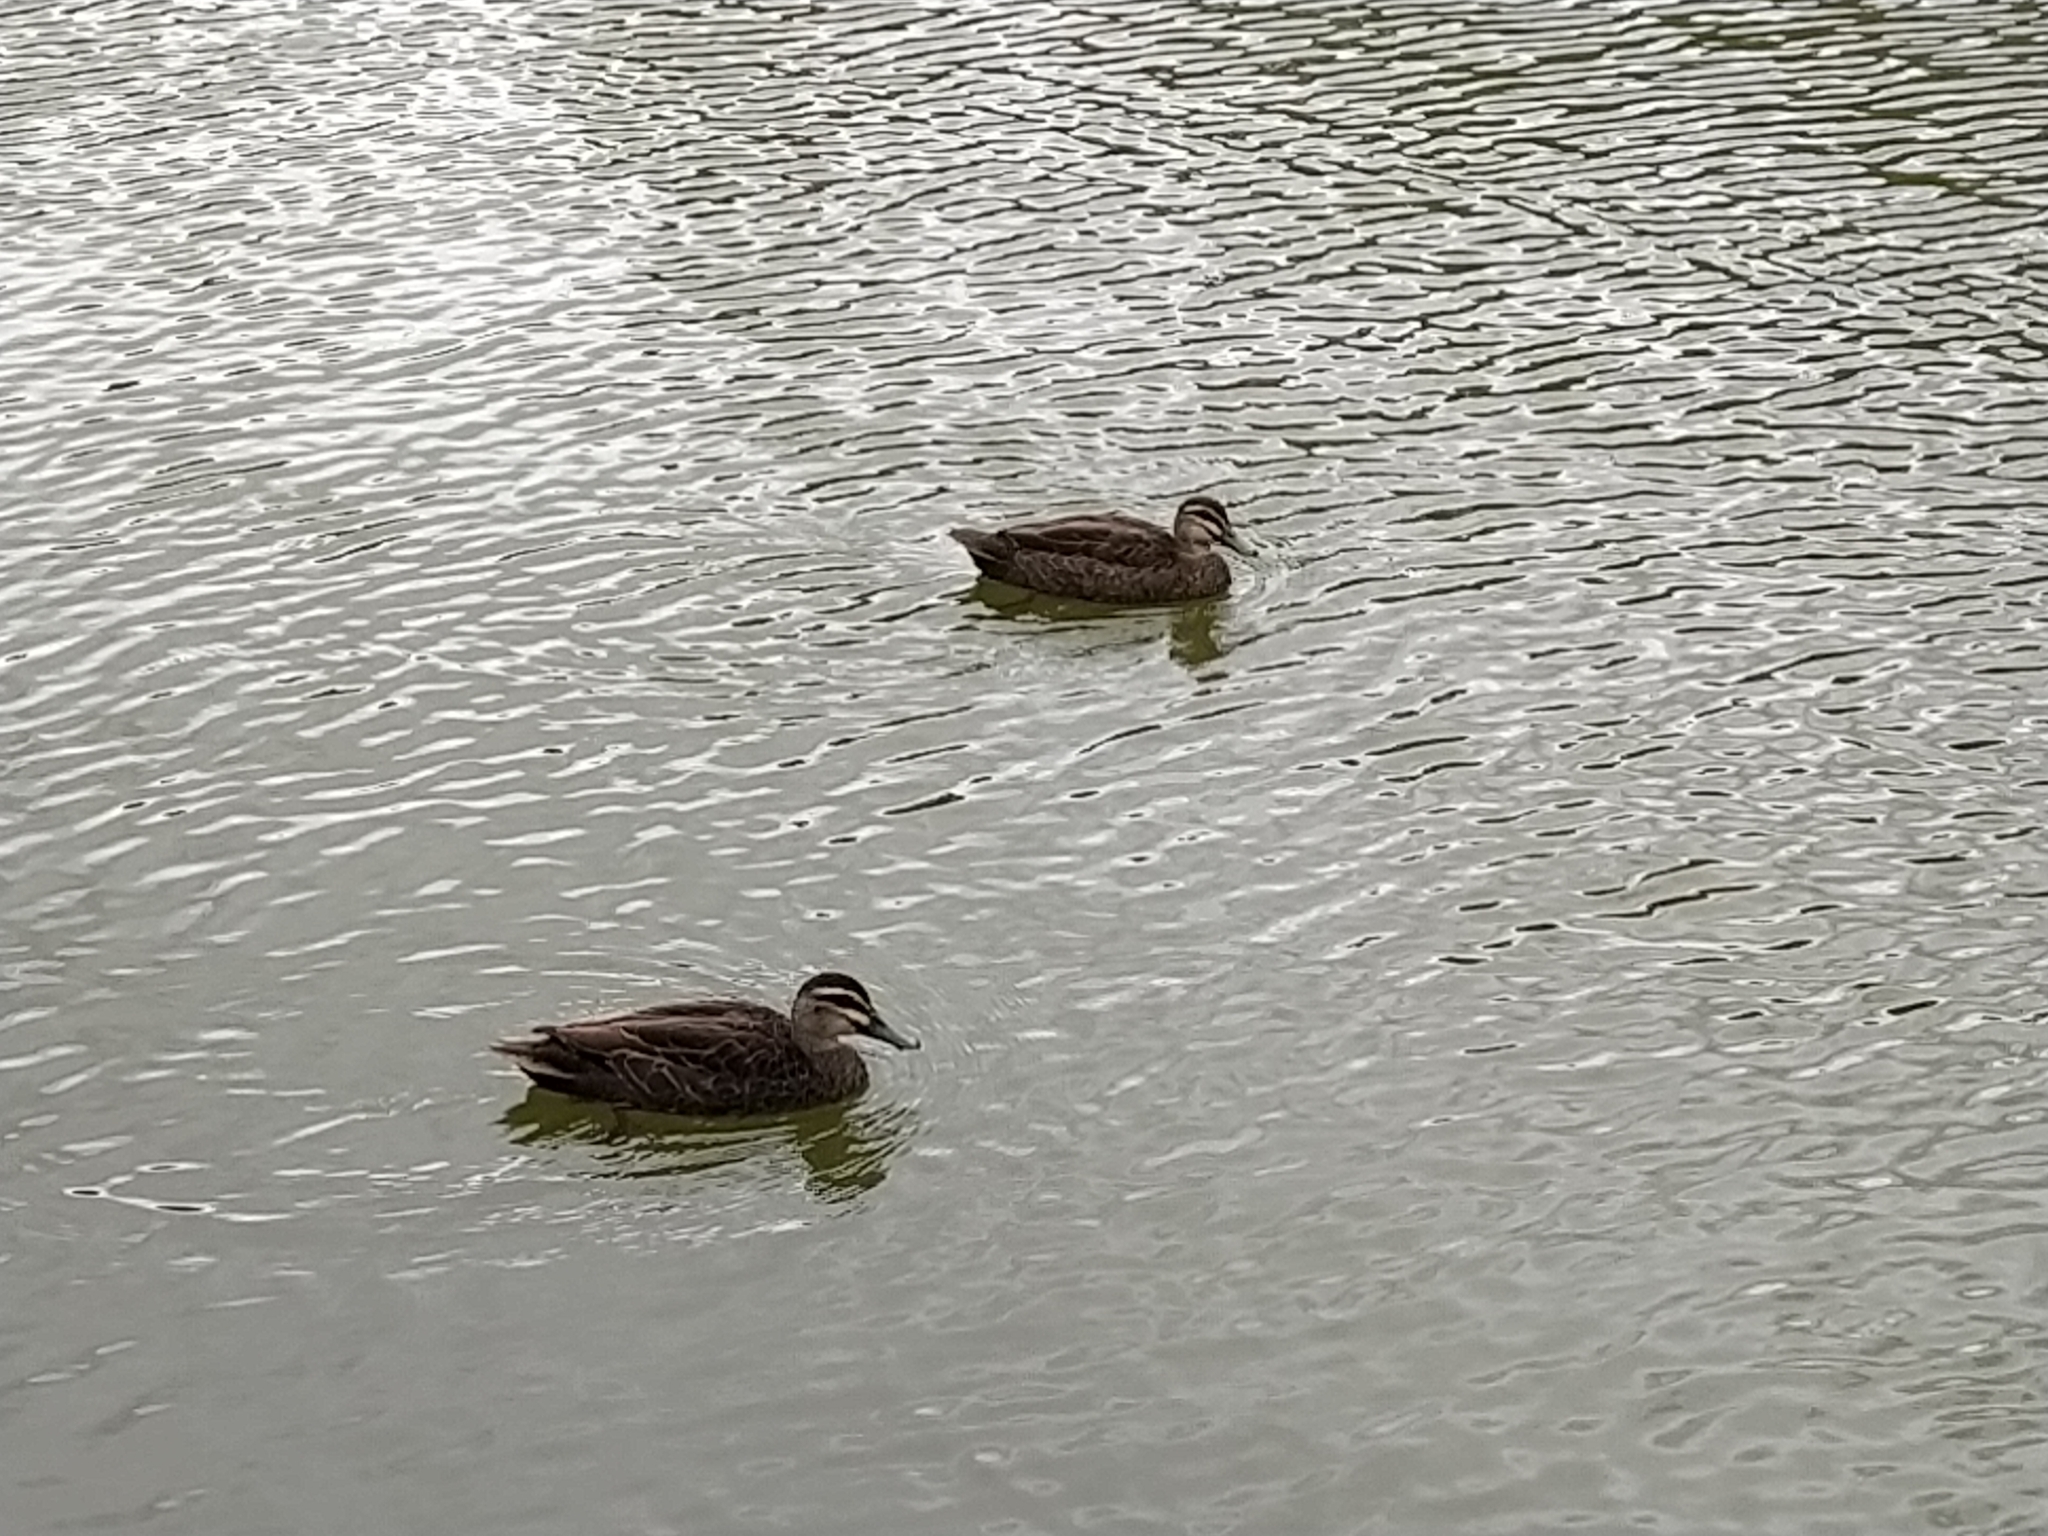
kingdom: Animalia
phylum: Chordata
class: Aves
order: Anseriformes
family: Anatidae
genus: Anas
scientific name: Anas superciliosa
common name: Pacific black duck
